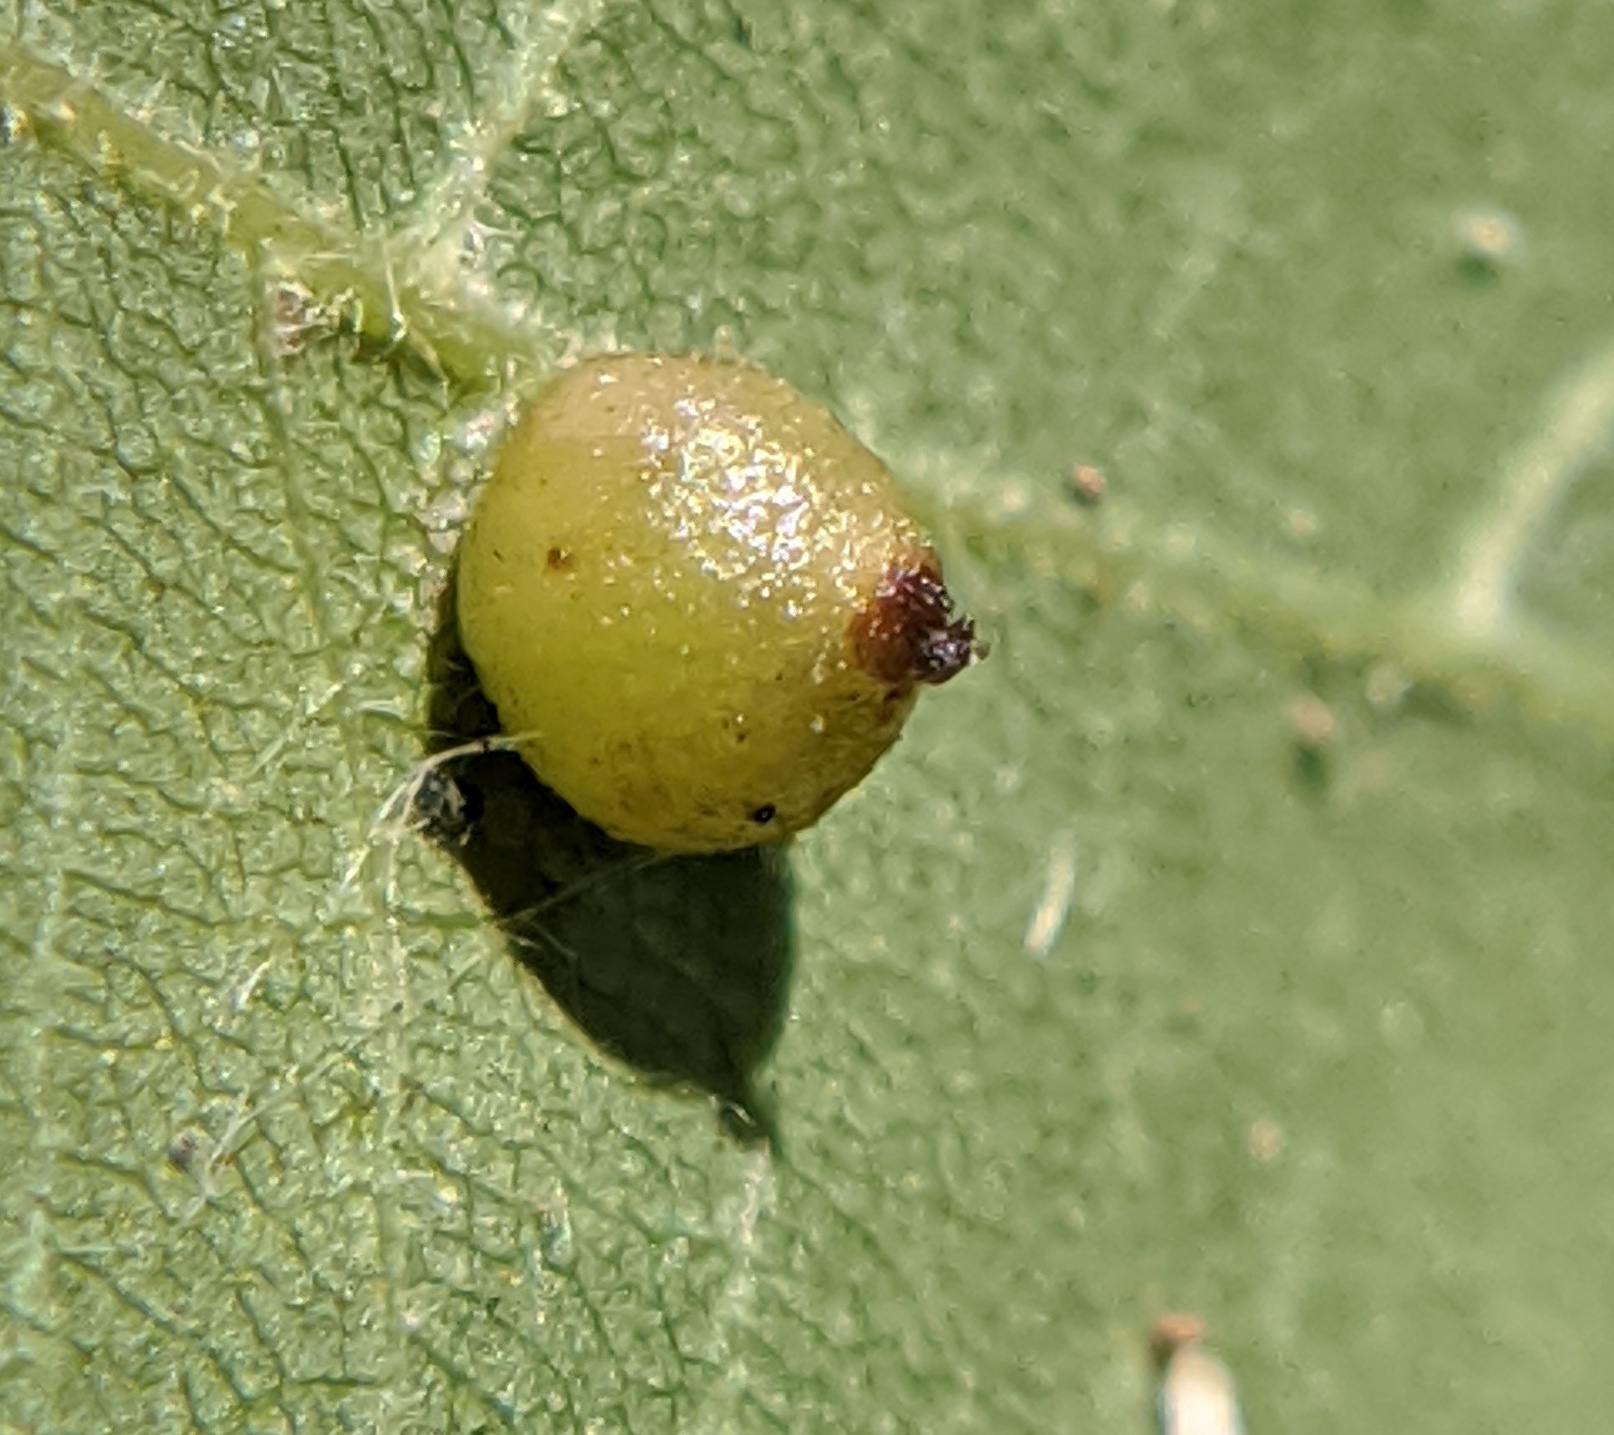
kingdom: Animalia
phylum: Arthropoda
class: Insecta
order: Diptera
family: Cecidomyiidae
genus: Caryomyia
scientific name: Caryomyia caryae
